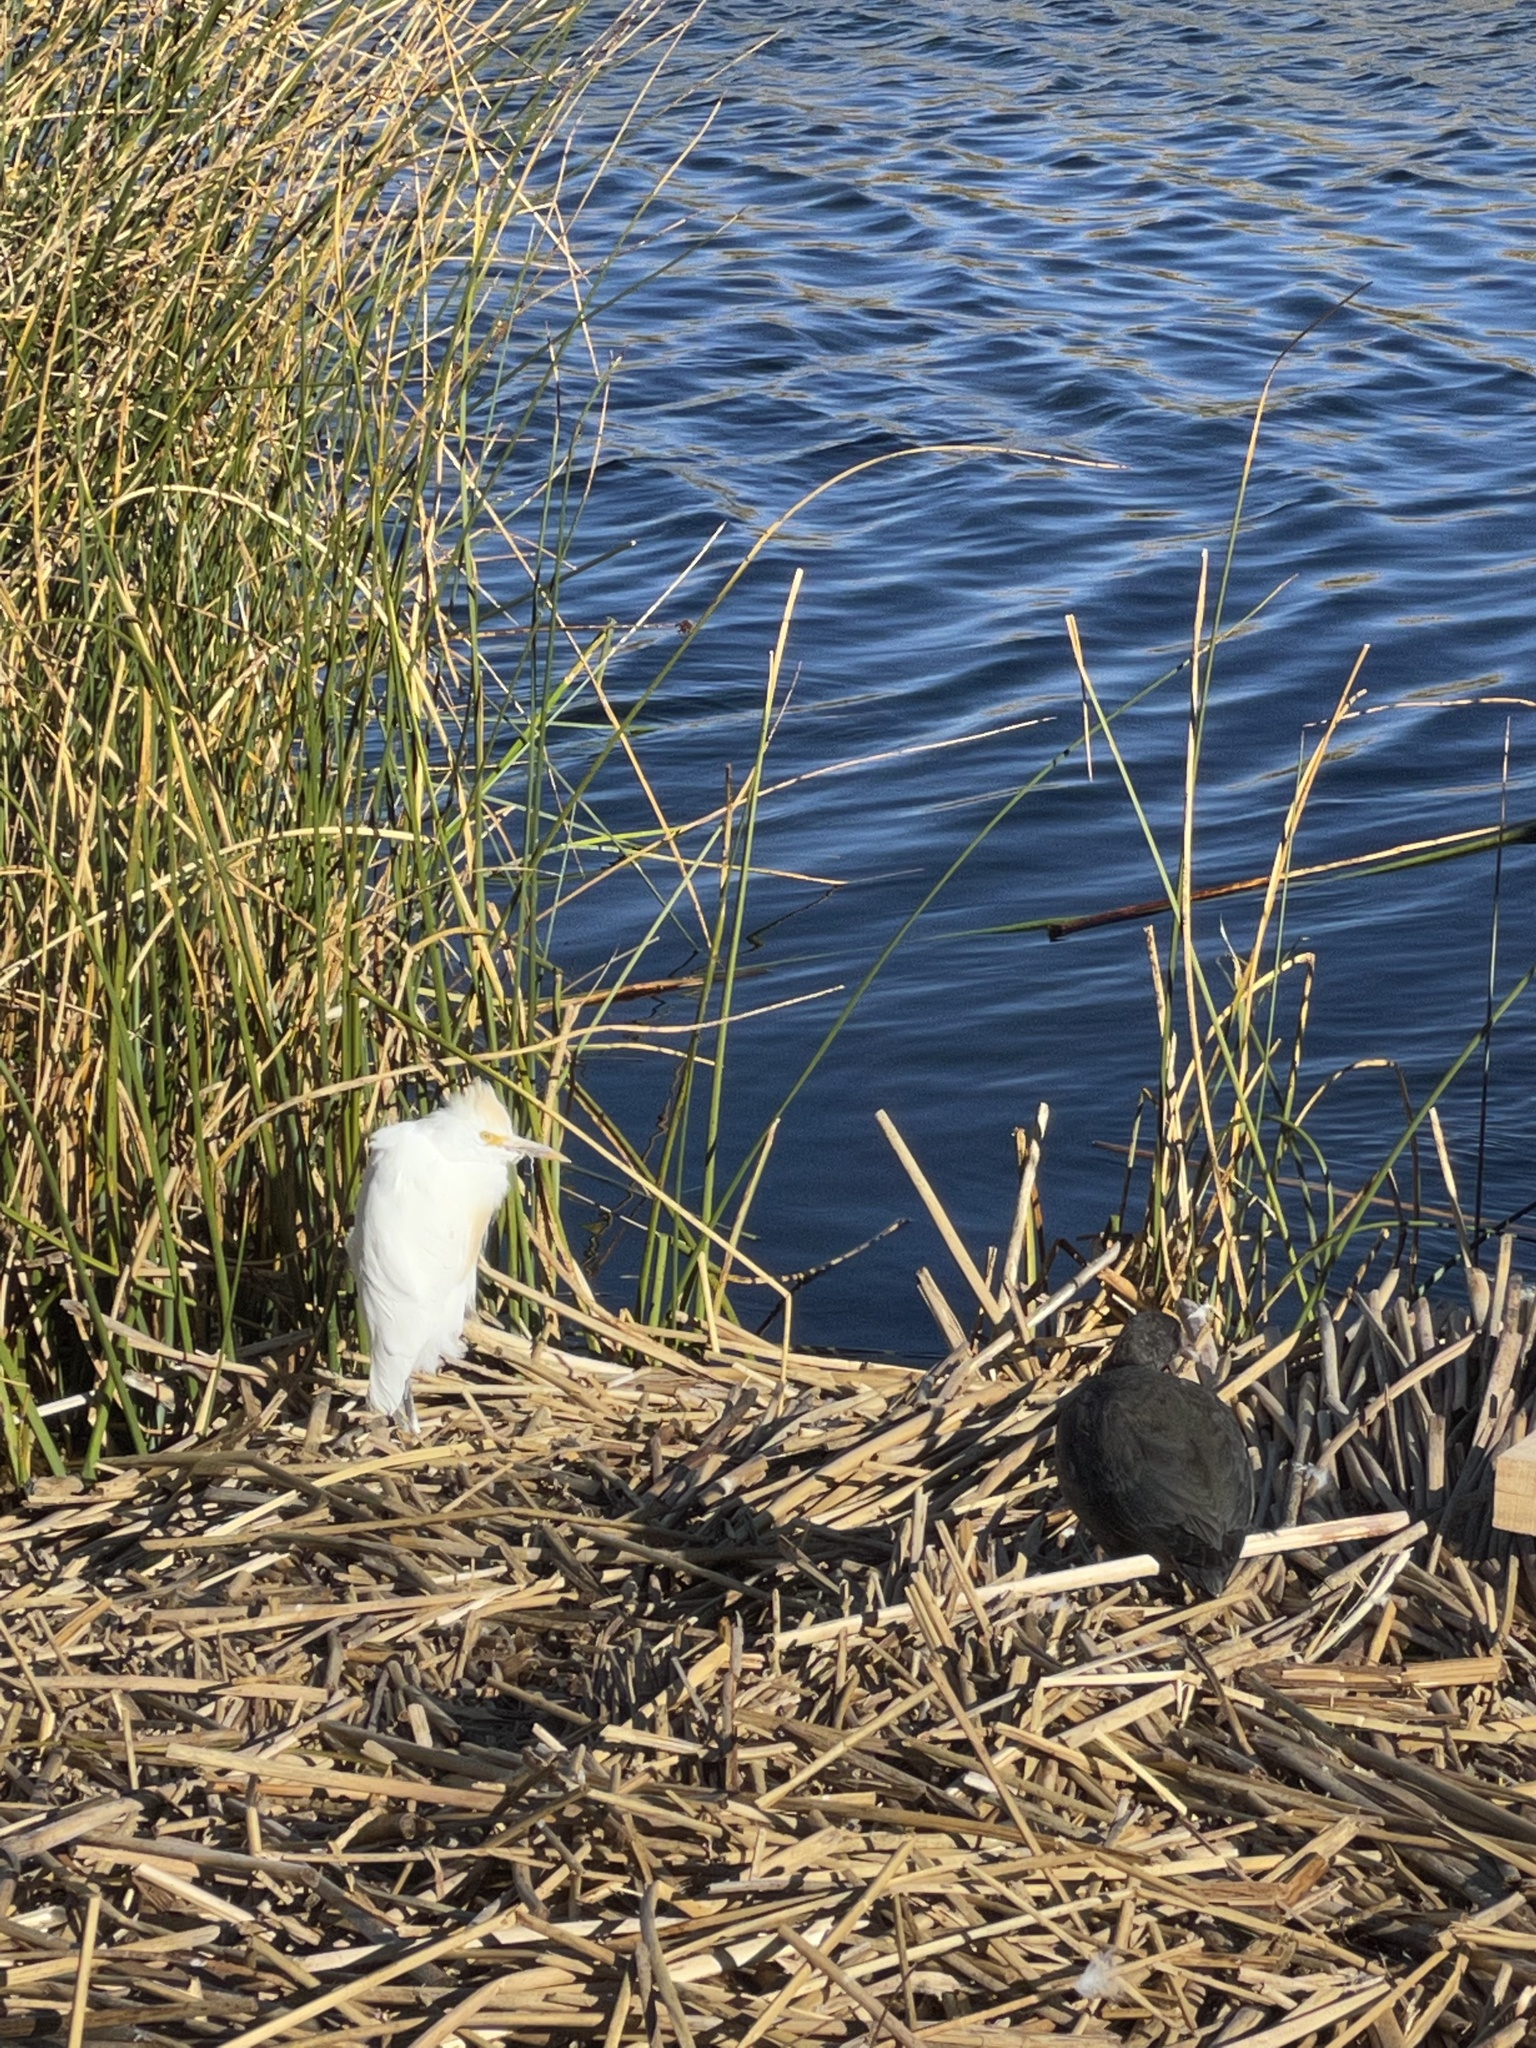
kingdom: Animalia
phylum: Chordata
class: Aves
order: Pelecaniformes
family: Ardeidae
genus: Bubulcus
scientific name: Bubulcus ibis
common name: Cattle egret
